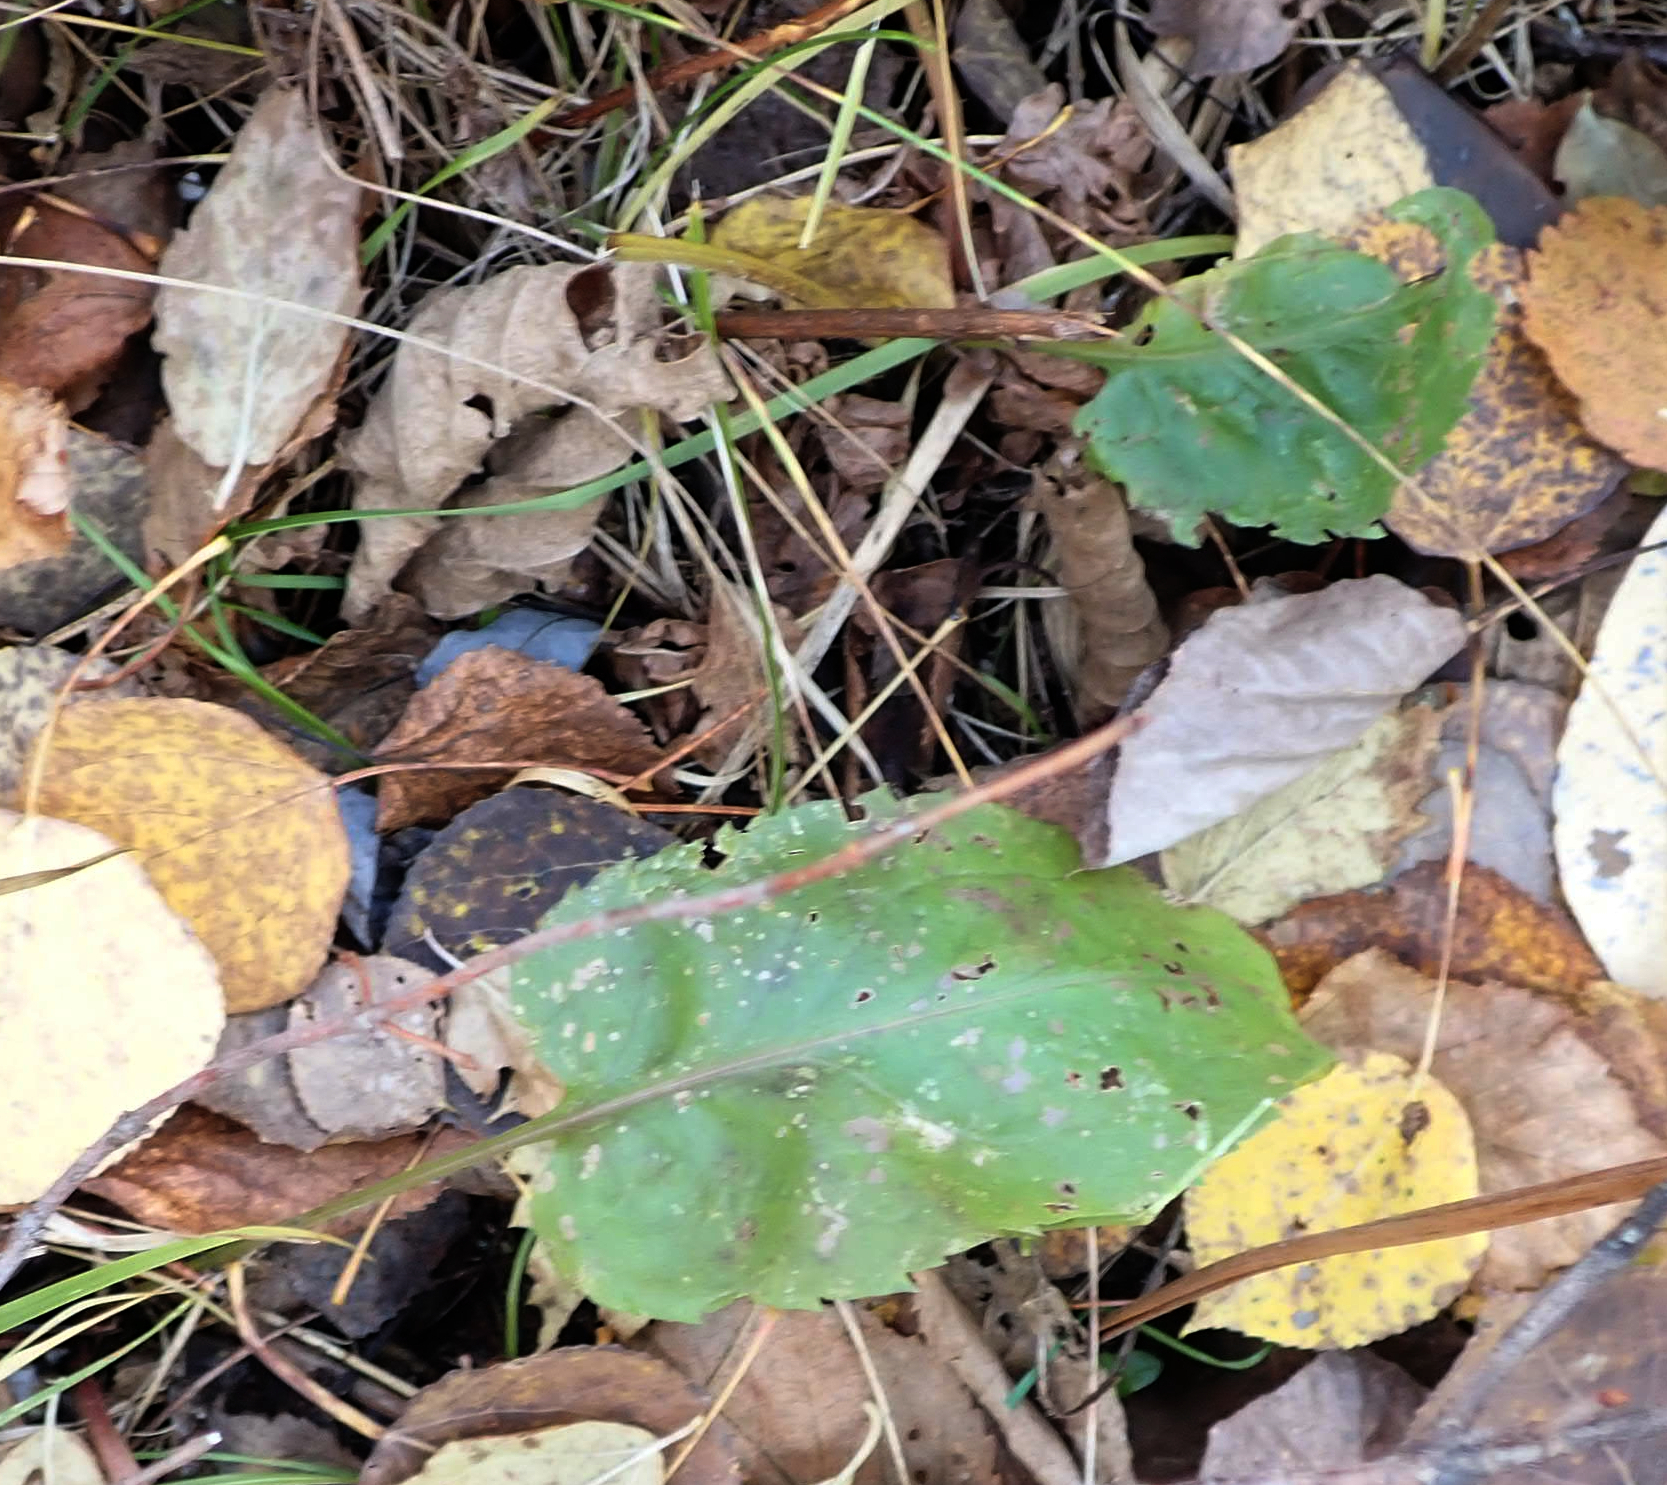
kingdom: Plantae
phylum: Tracheophyta
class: Magnoliopsida
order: Asterales
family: Asteraceae
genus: Symphyotrichum
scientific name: Symphyotrichum ciliolatum
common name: Fringed blue aster
